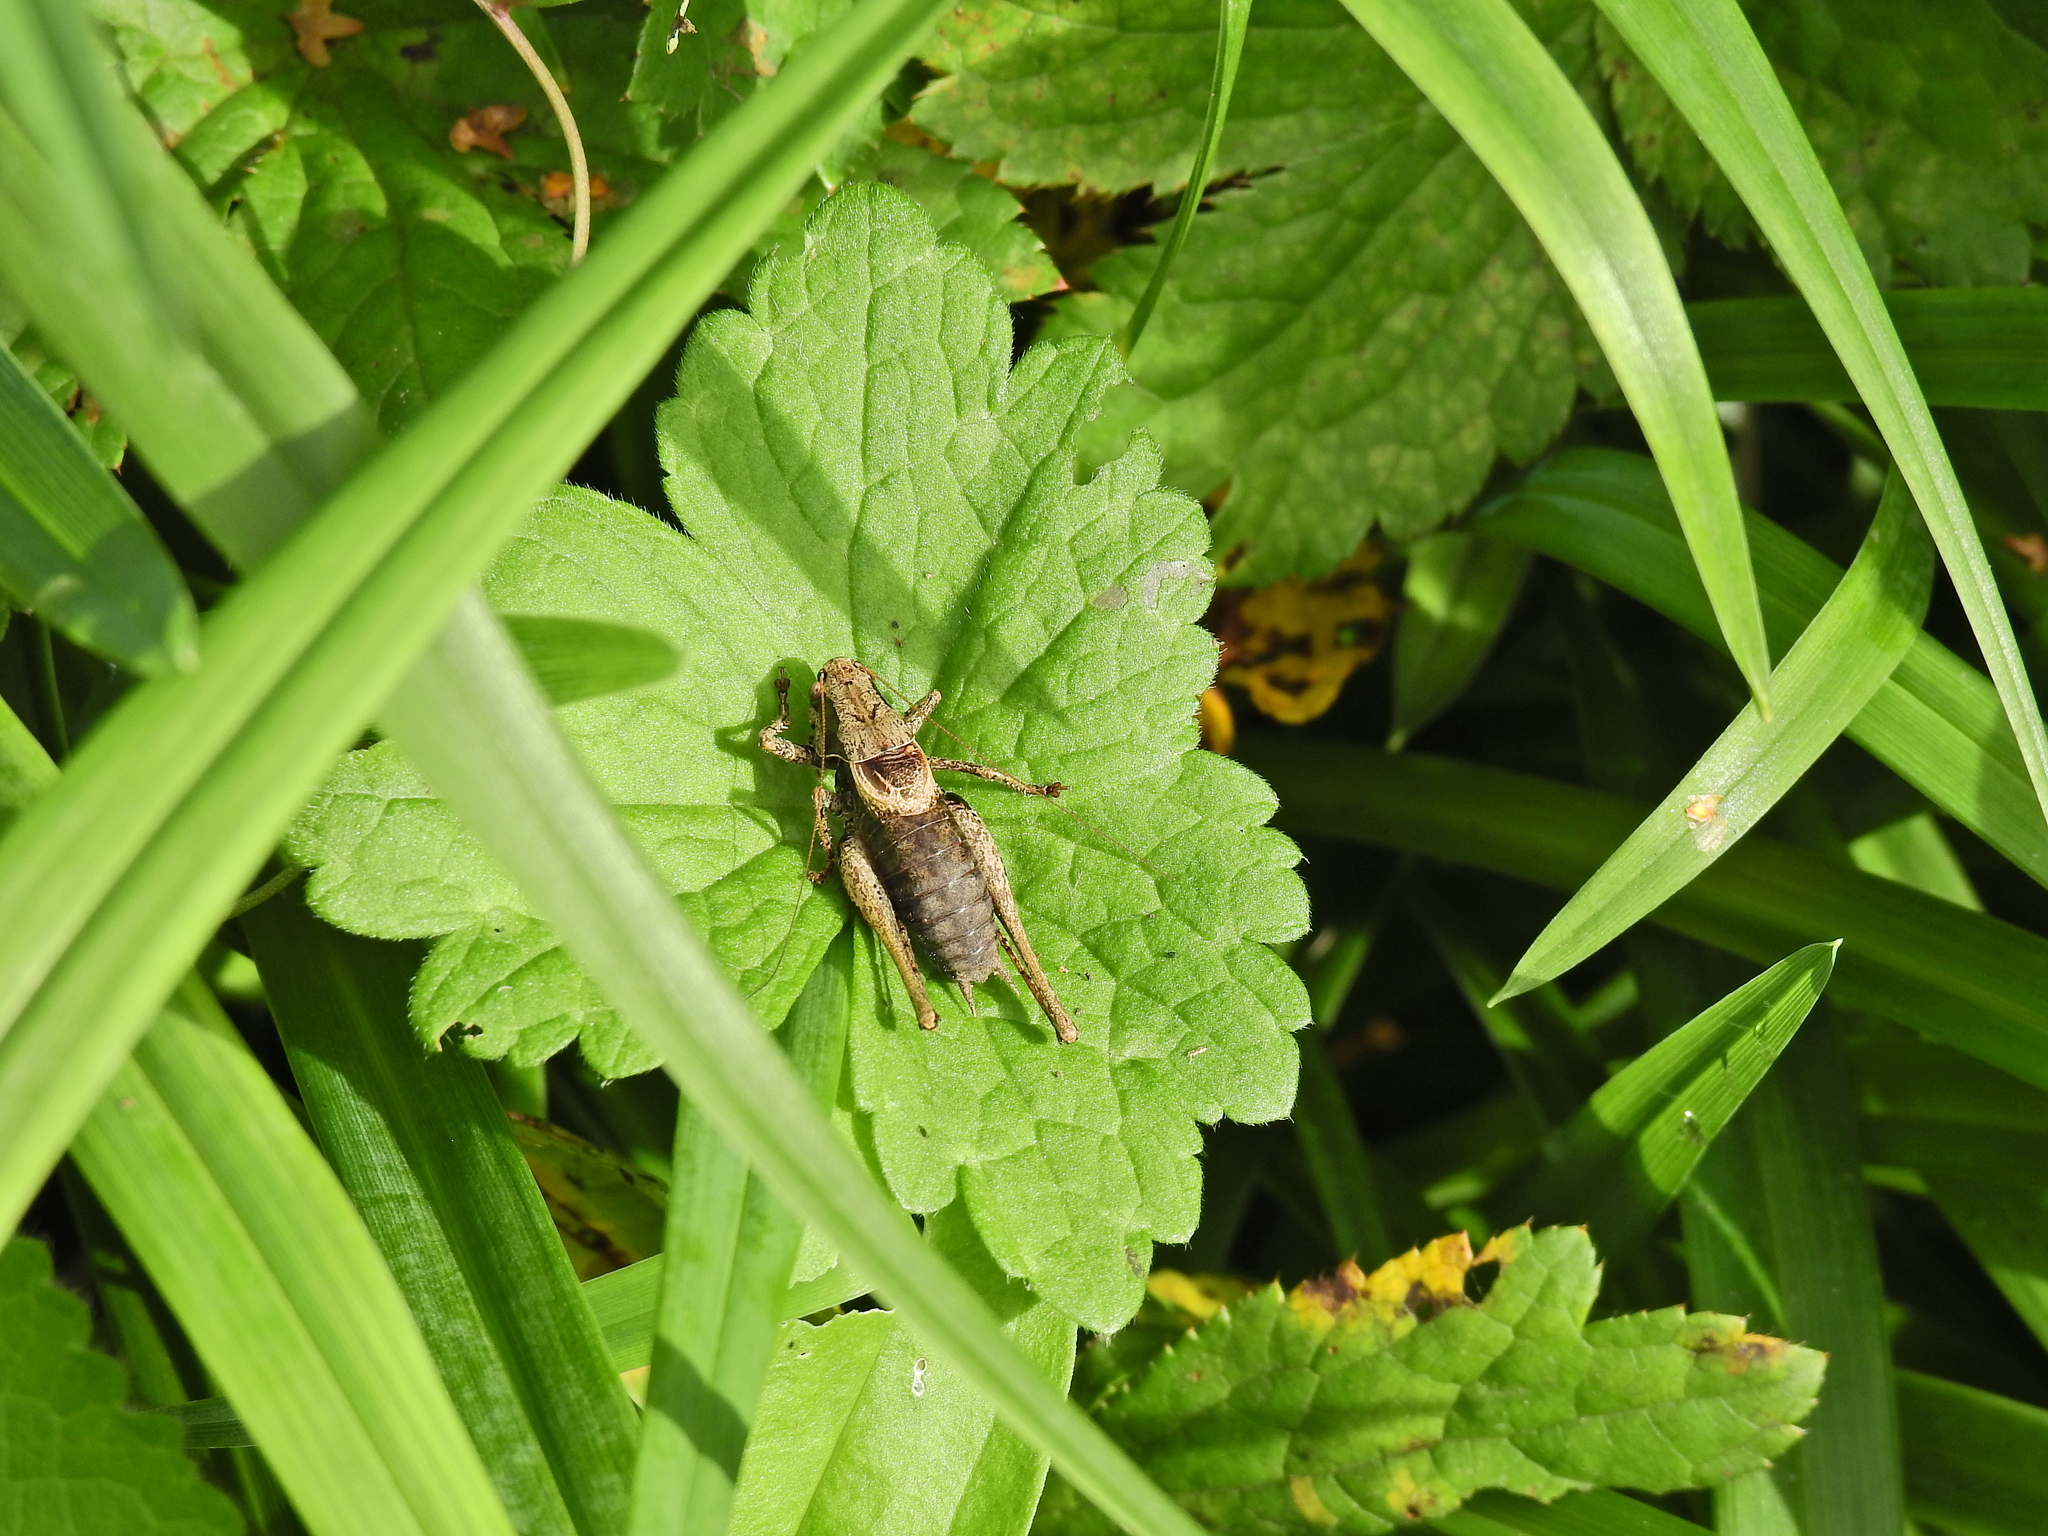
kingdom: Animalia
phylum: Arthropoda
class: Insecta
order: Orthoptera
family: Tettigoniidae
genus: Pholidoptera
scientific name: Pholidoptera griseoaptera
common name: Dark bush-cricket
